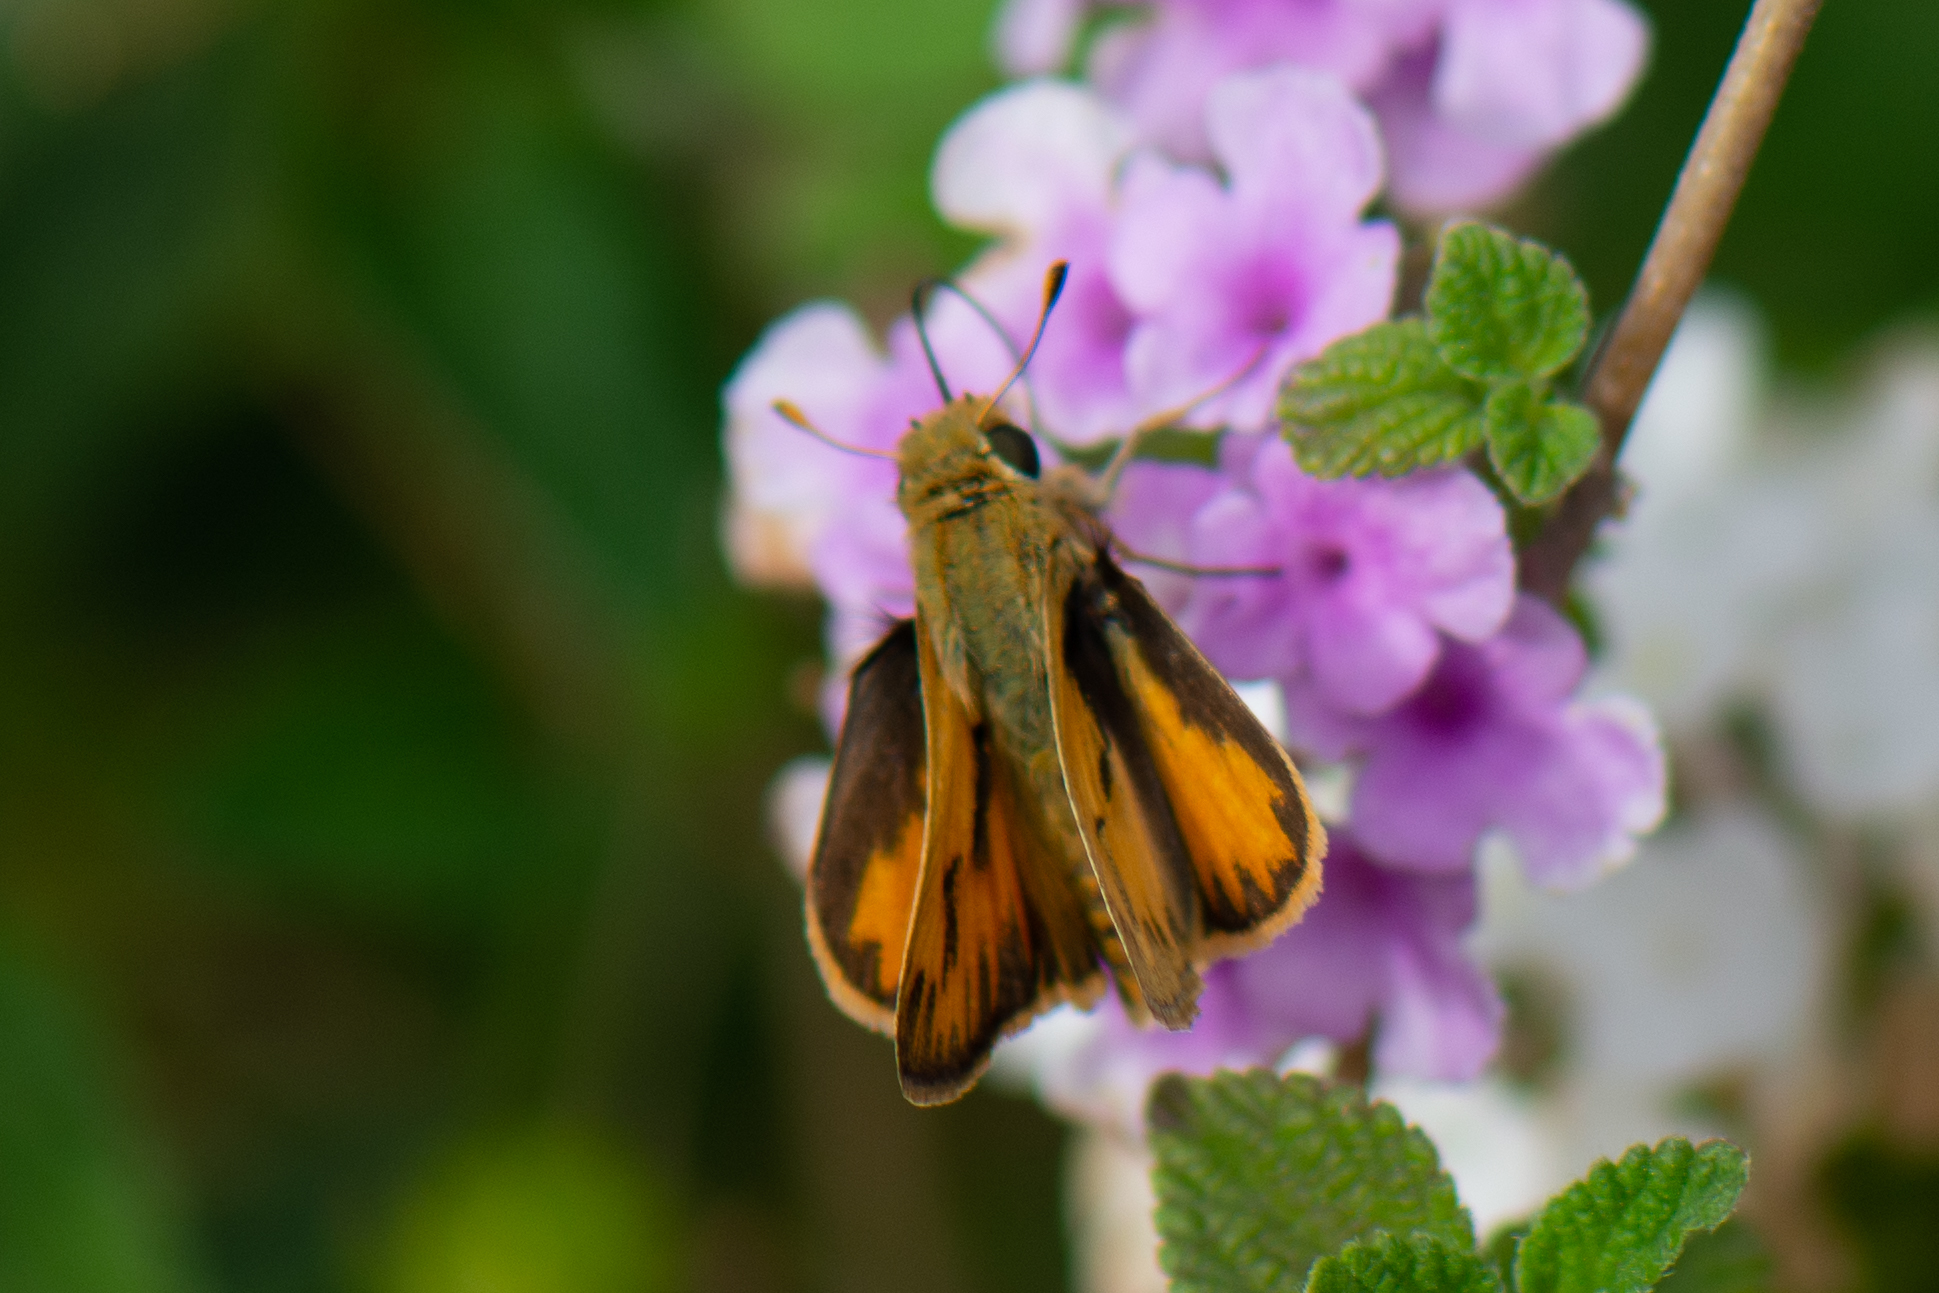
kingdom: Animalia
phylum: Arthropoda
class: Insecta
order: Lepidoptera
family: Hesperiidae
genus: Hylephila
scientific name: Hylephila phyleus
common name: Fiery skipper
